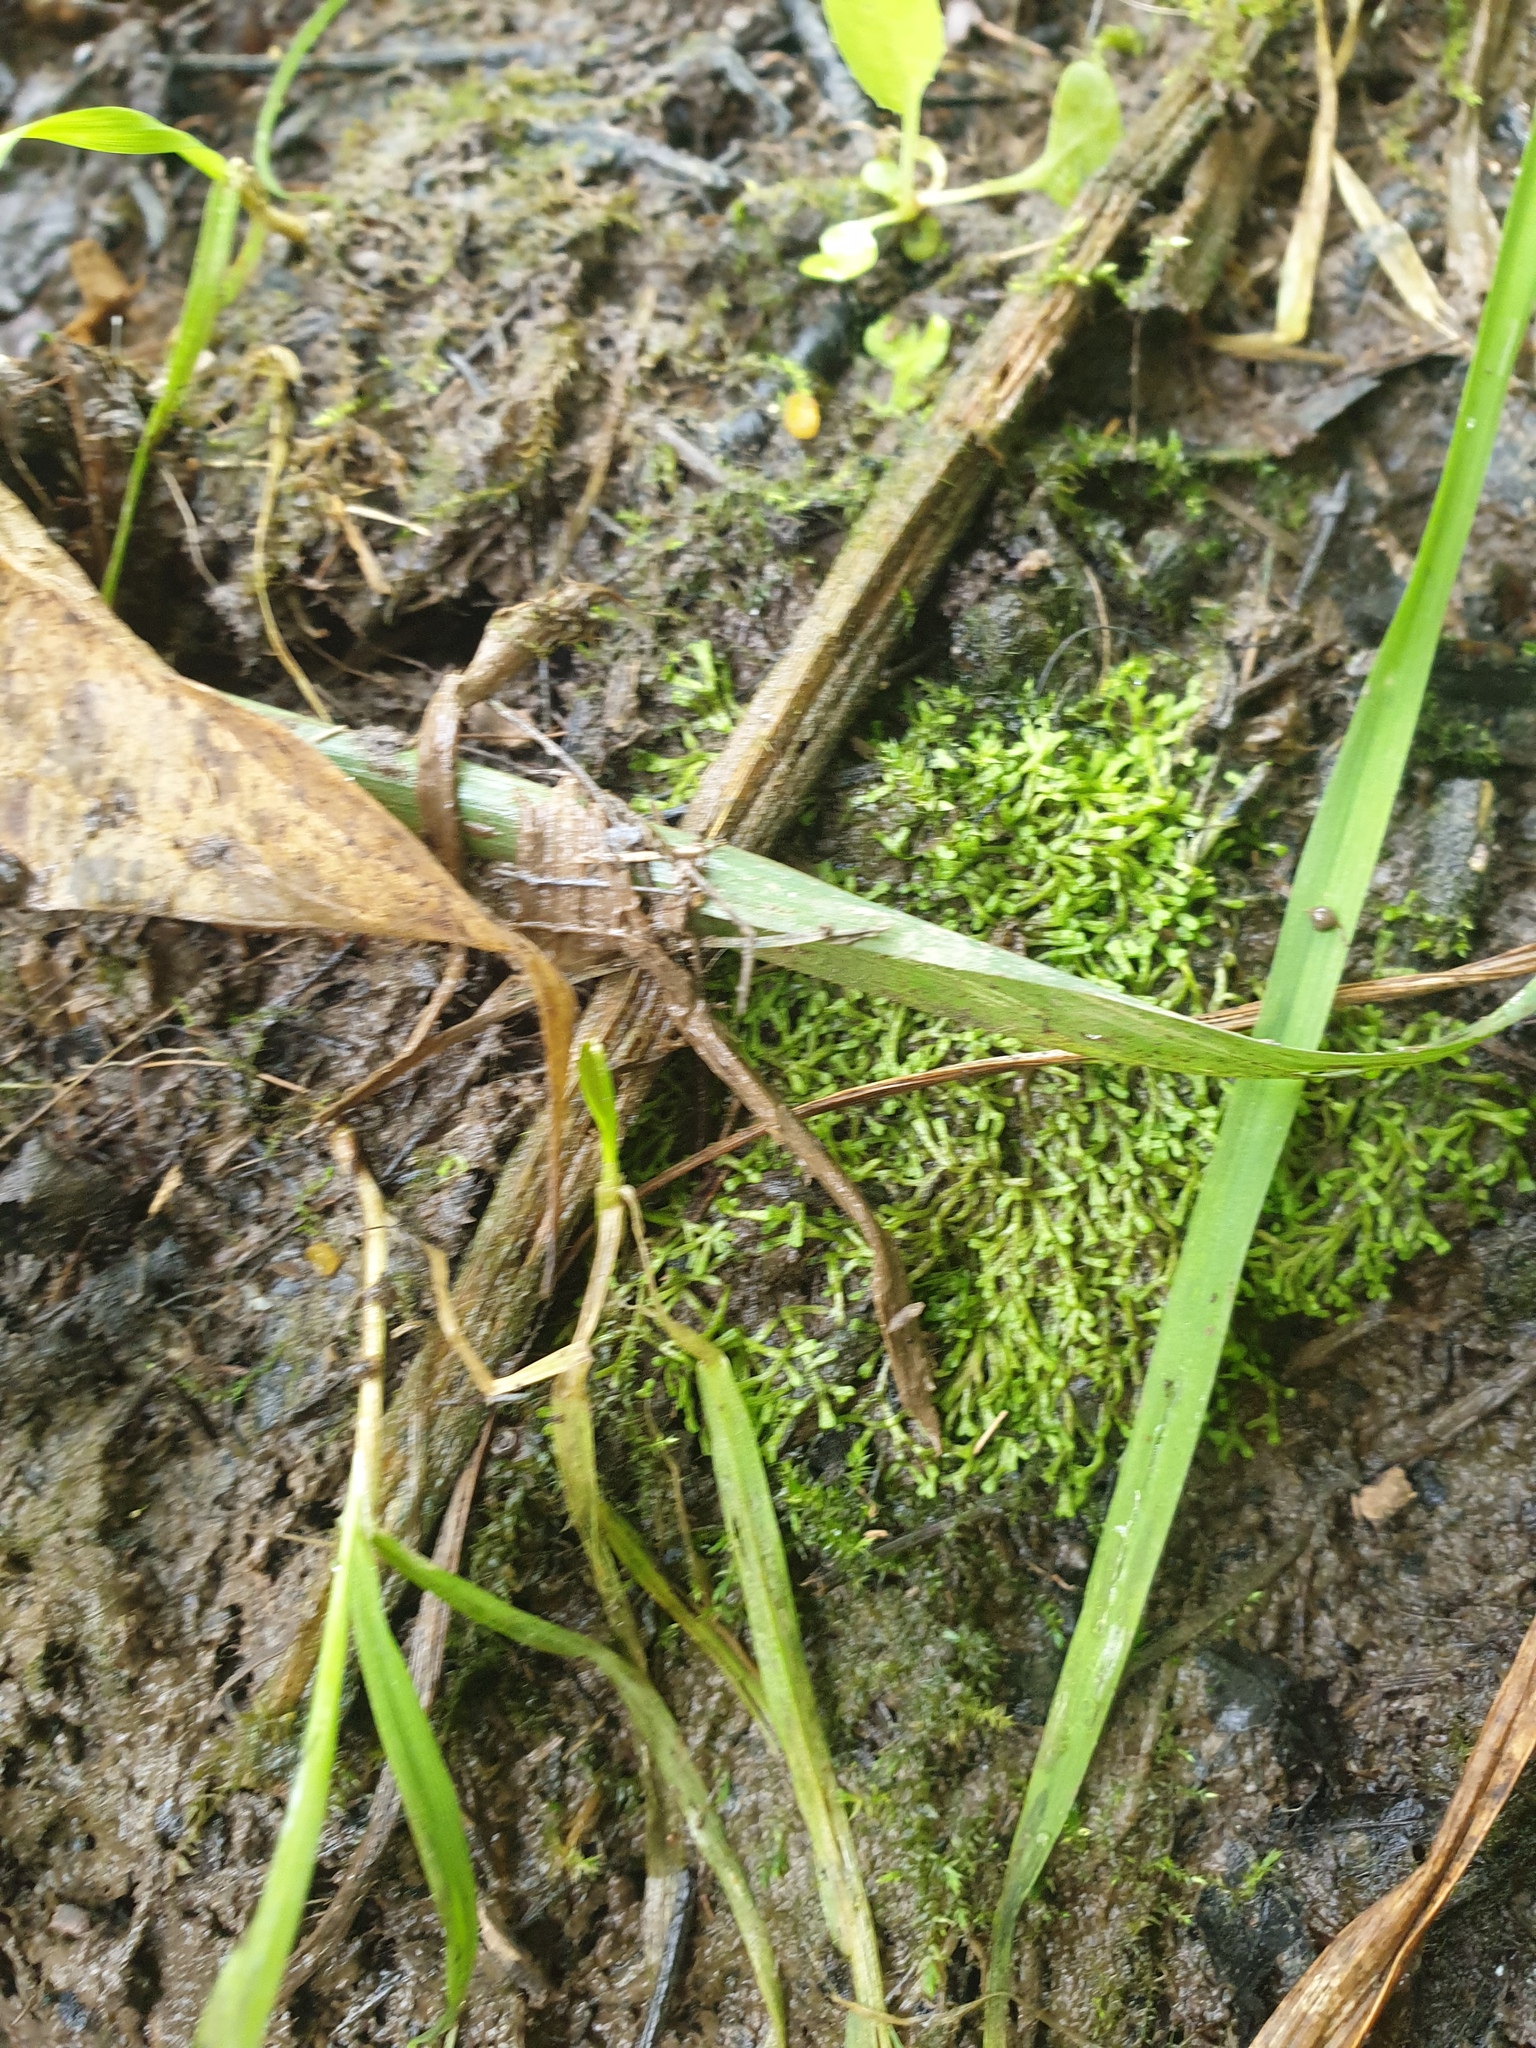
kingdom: Plantae
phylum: Marchantiophyta
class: Marchantiopsida
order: Marchantiales
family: Ricciaceae
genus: Riccia
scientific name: Riccia fluitans
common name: Floating crystalwort
